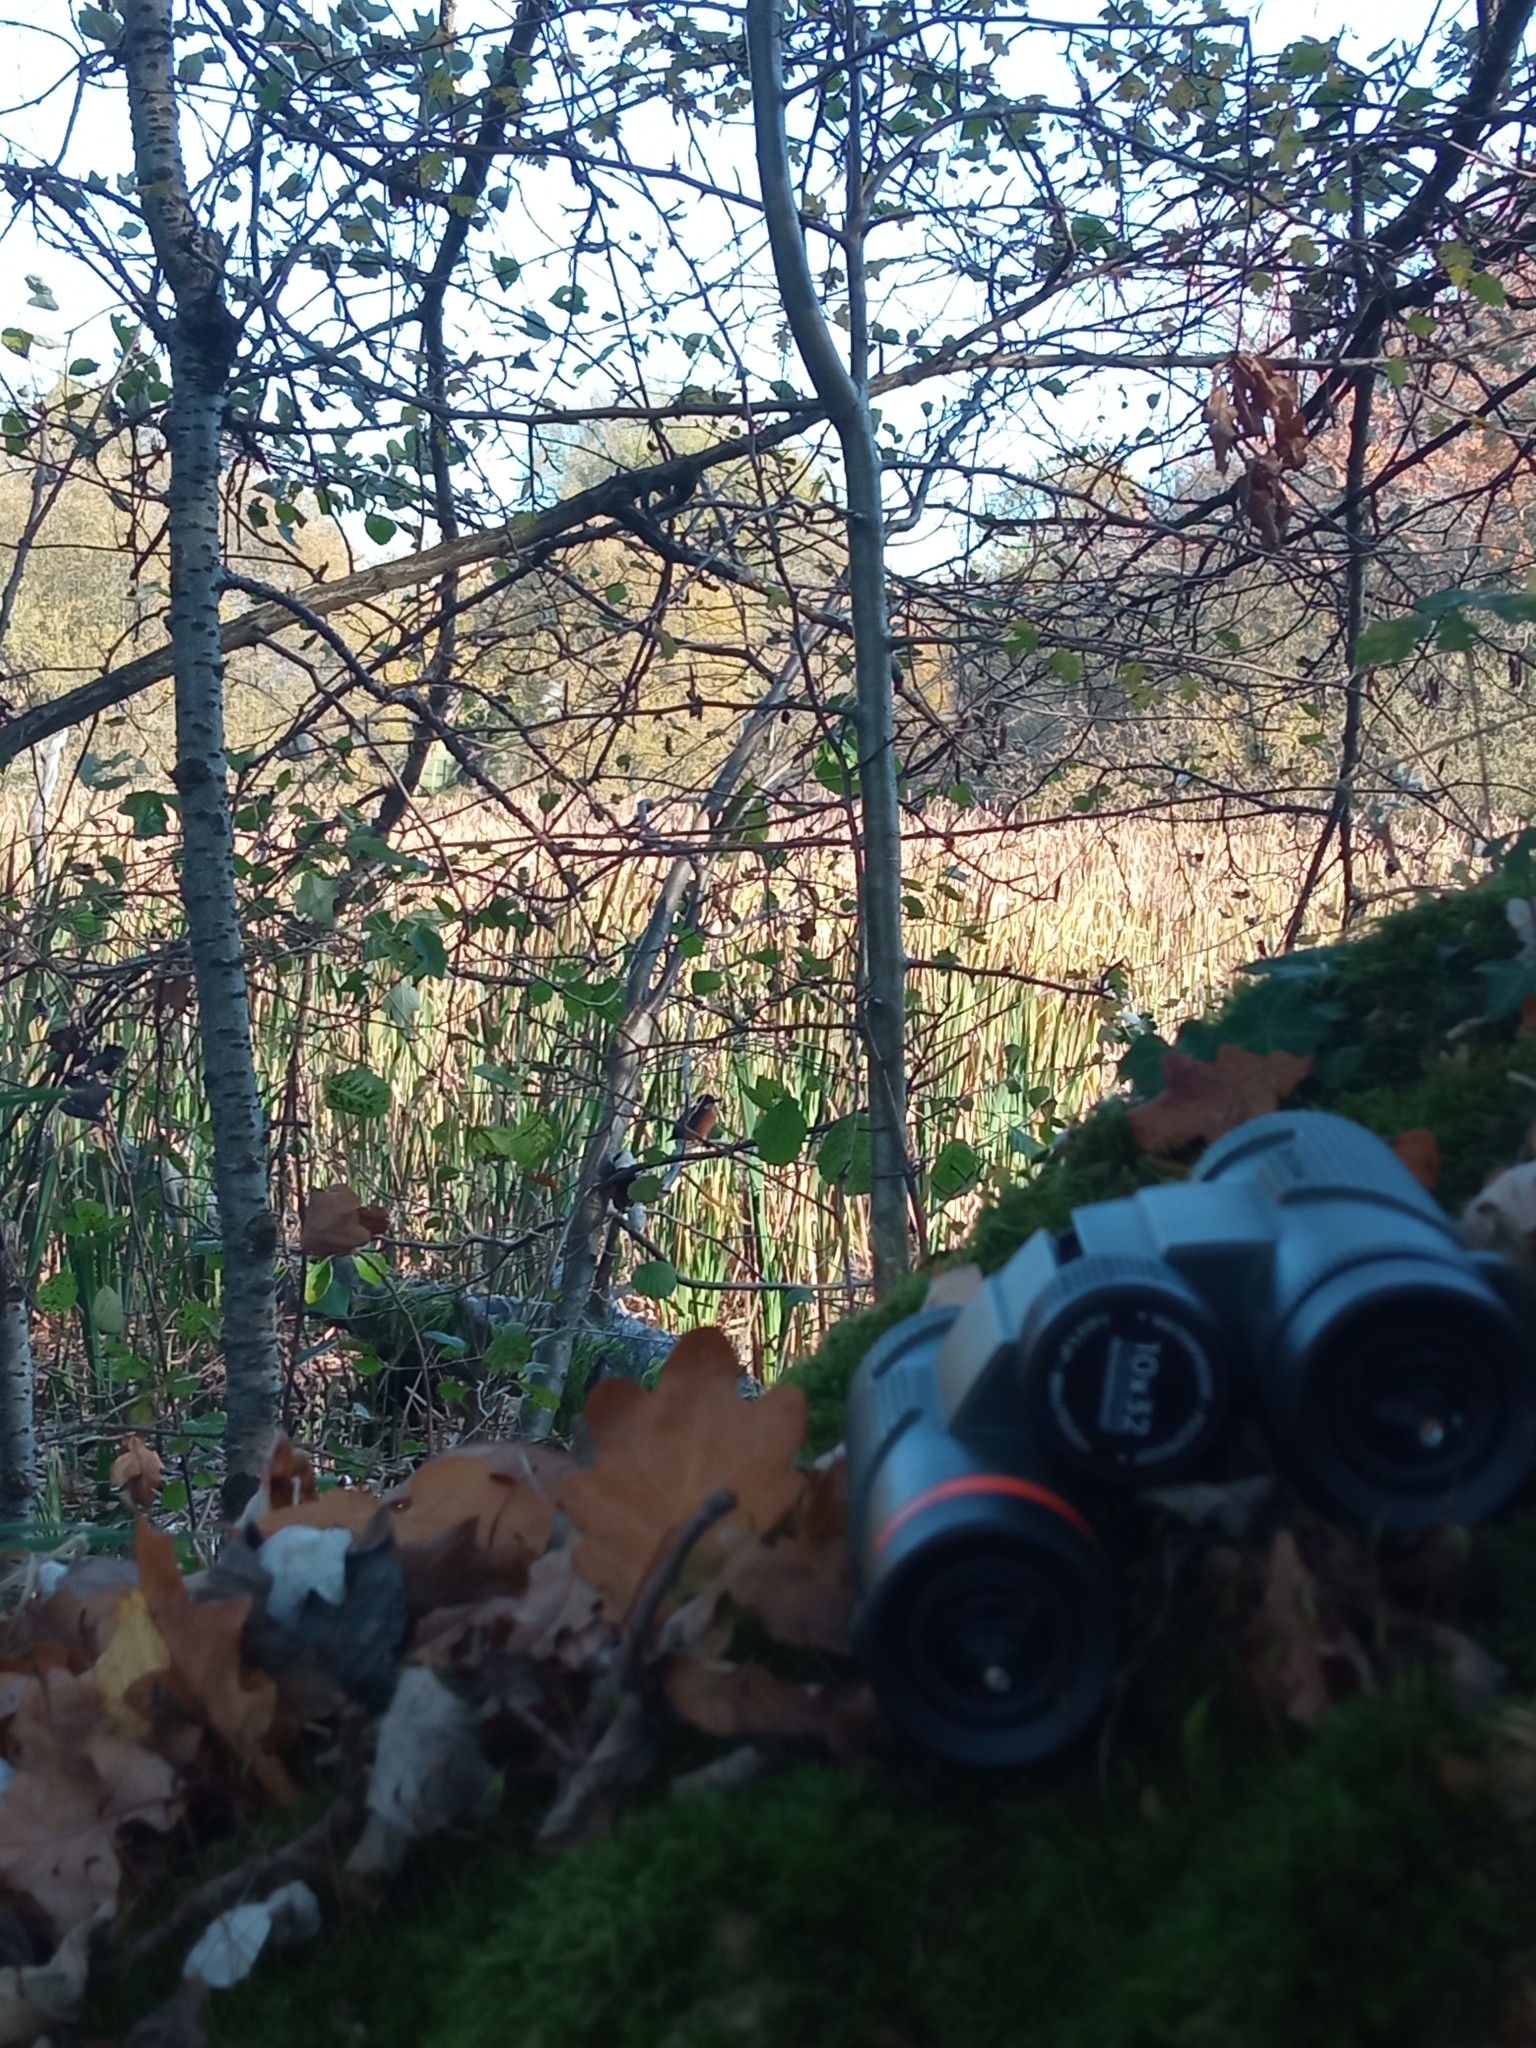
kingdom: Animalia
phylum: Chordata
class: Aves
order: Coraciiformes
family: Alcedinidae
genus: Alcedo
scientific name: Alcedo atthis
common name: Common kingfisher
